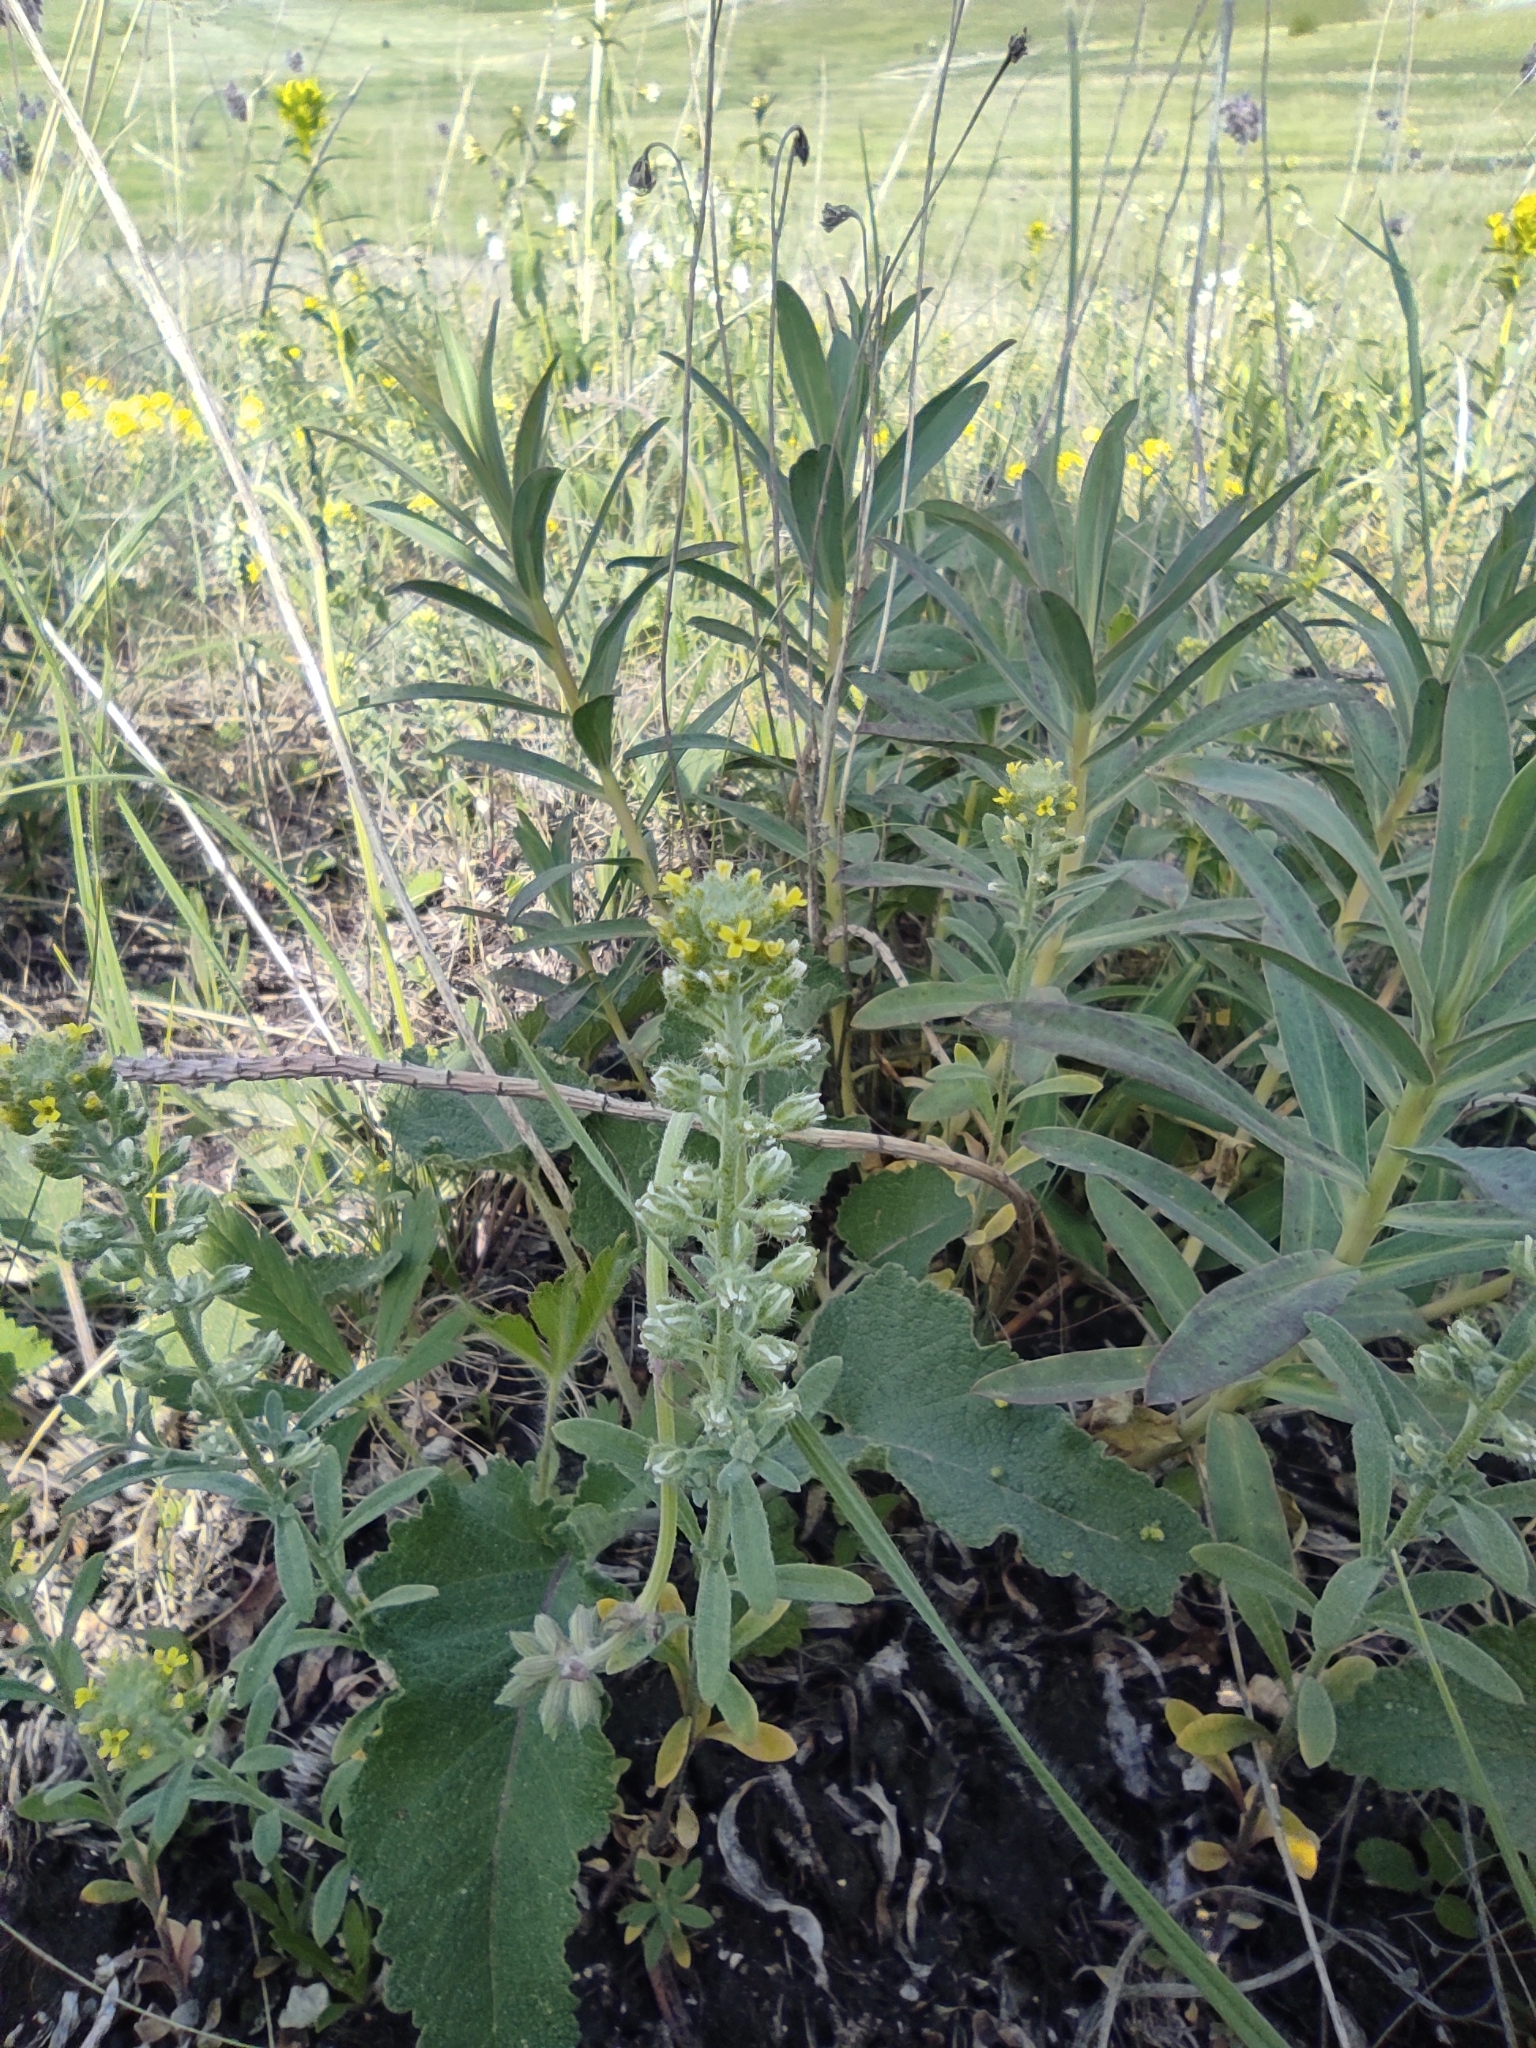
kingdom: Plantae
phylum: Tracheophyta
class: Magnoliopsida
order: Brassicales
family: Brassicaceae
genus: Alyssum
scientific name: Alyssum alyssoides
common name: Small alison
